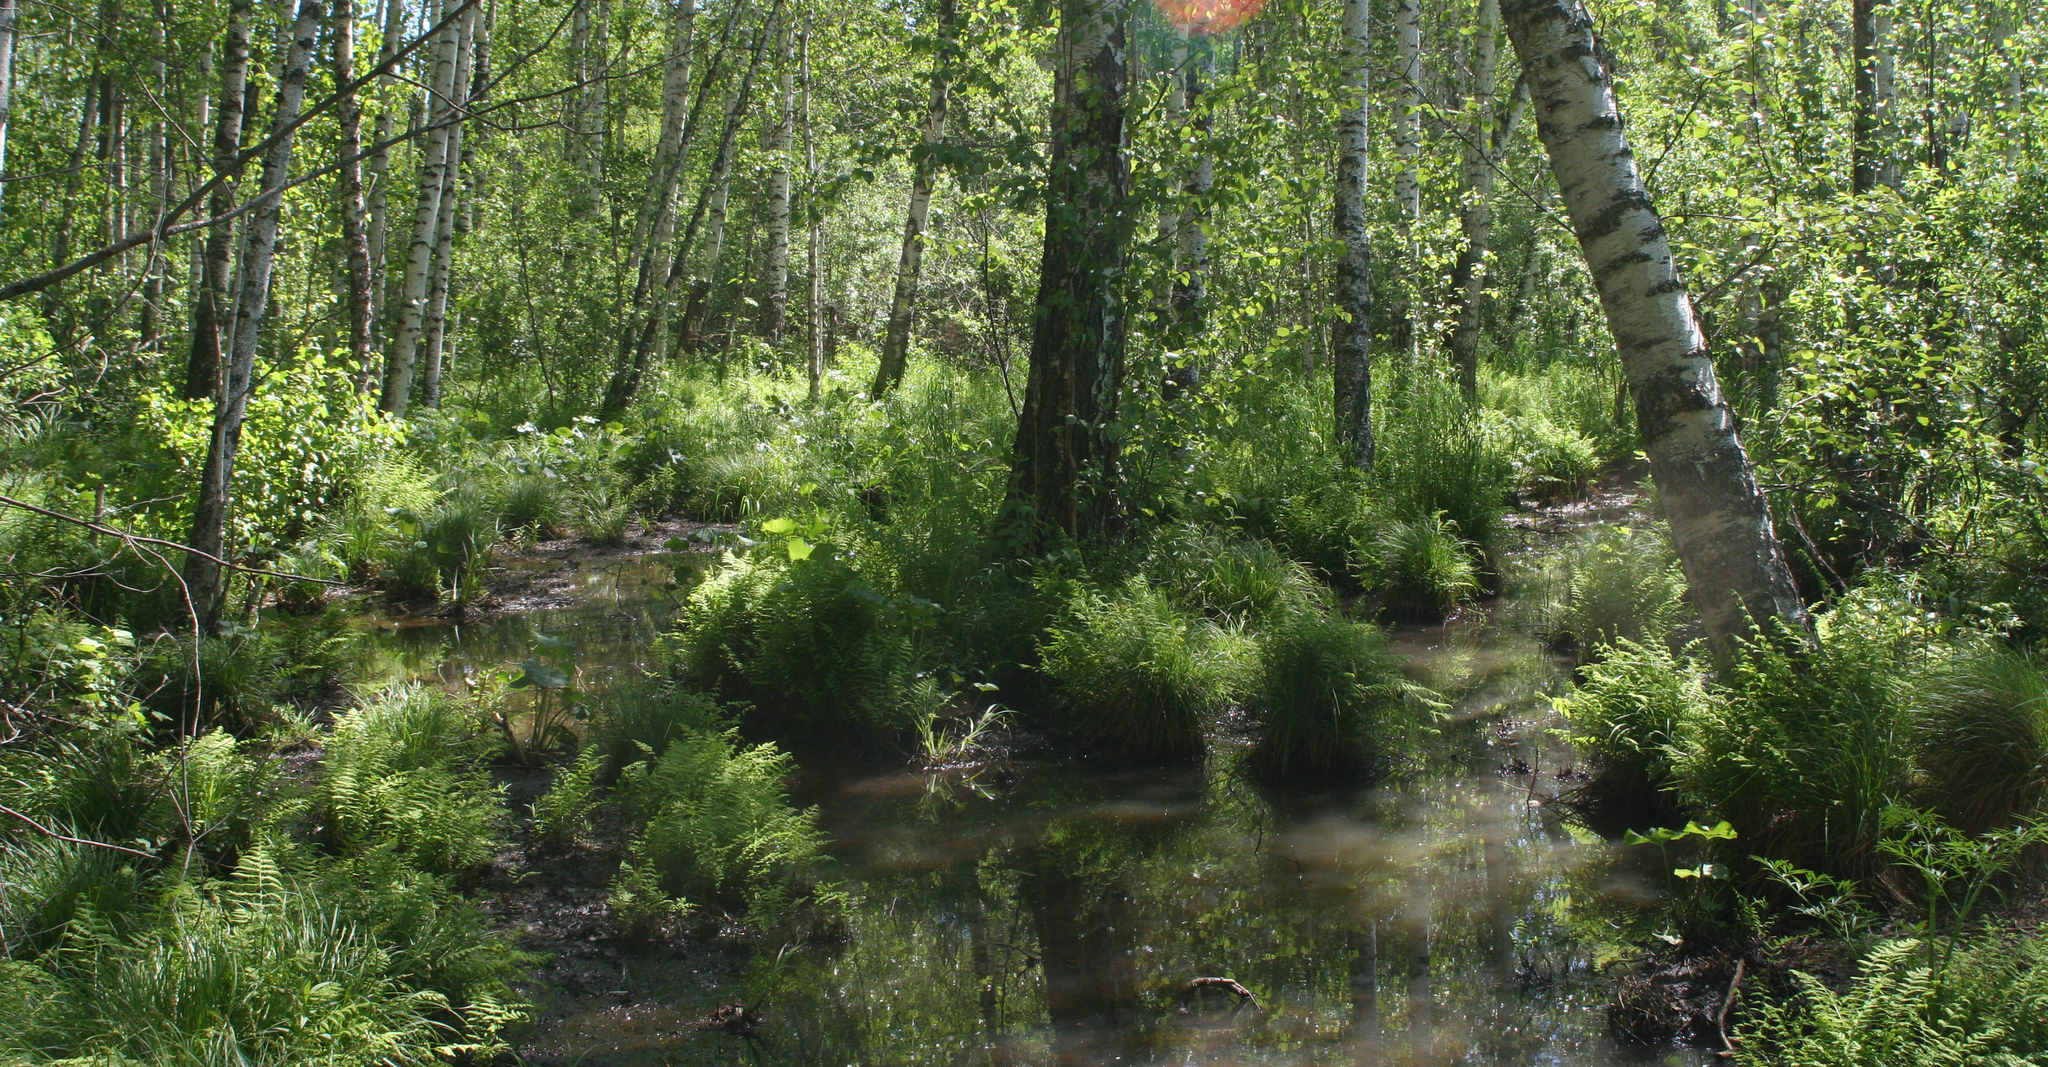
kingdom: Plantae
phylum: Tracheophyta
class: Polypodiopsida
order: Polypodiales
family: Thelypteridaceae
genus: Thelypteris
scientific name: Thelypteris palustris
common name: Marsh fern
